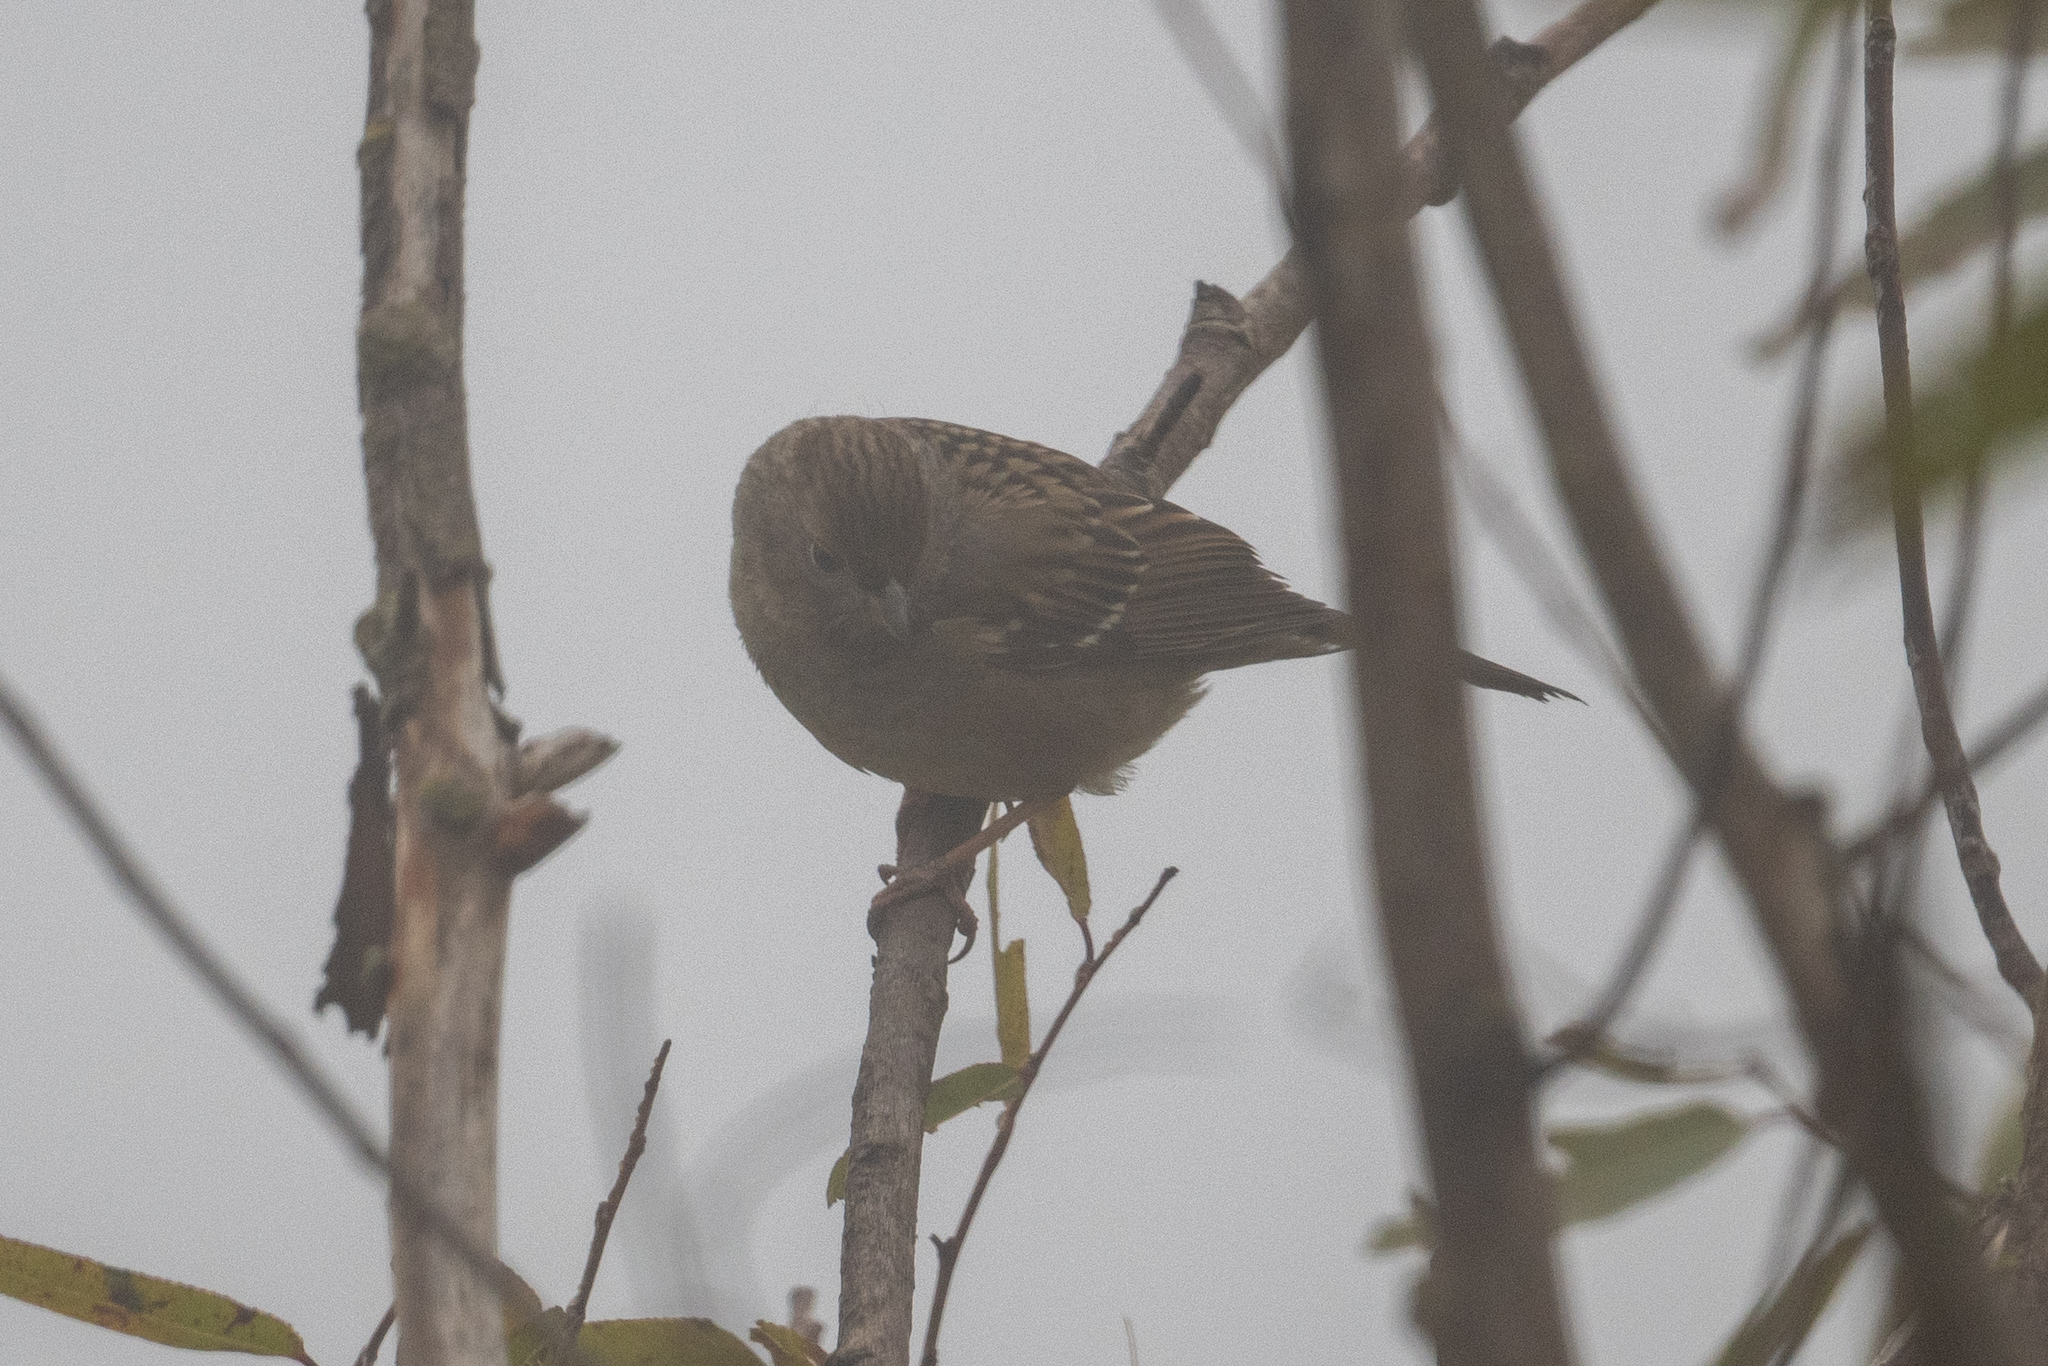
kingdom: Animalia
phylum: Chordata
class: Aves
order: Passeriformes
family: Passerellidae
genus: Zonotrichia
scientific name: Zonotrichia atricapilla
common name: Golden-crowned sparrow
